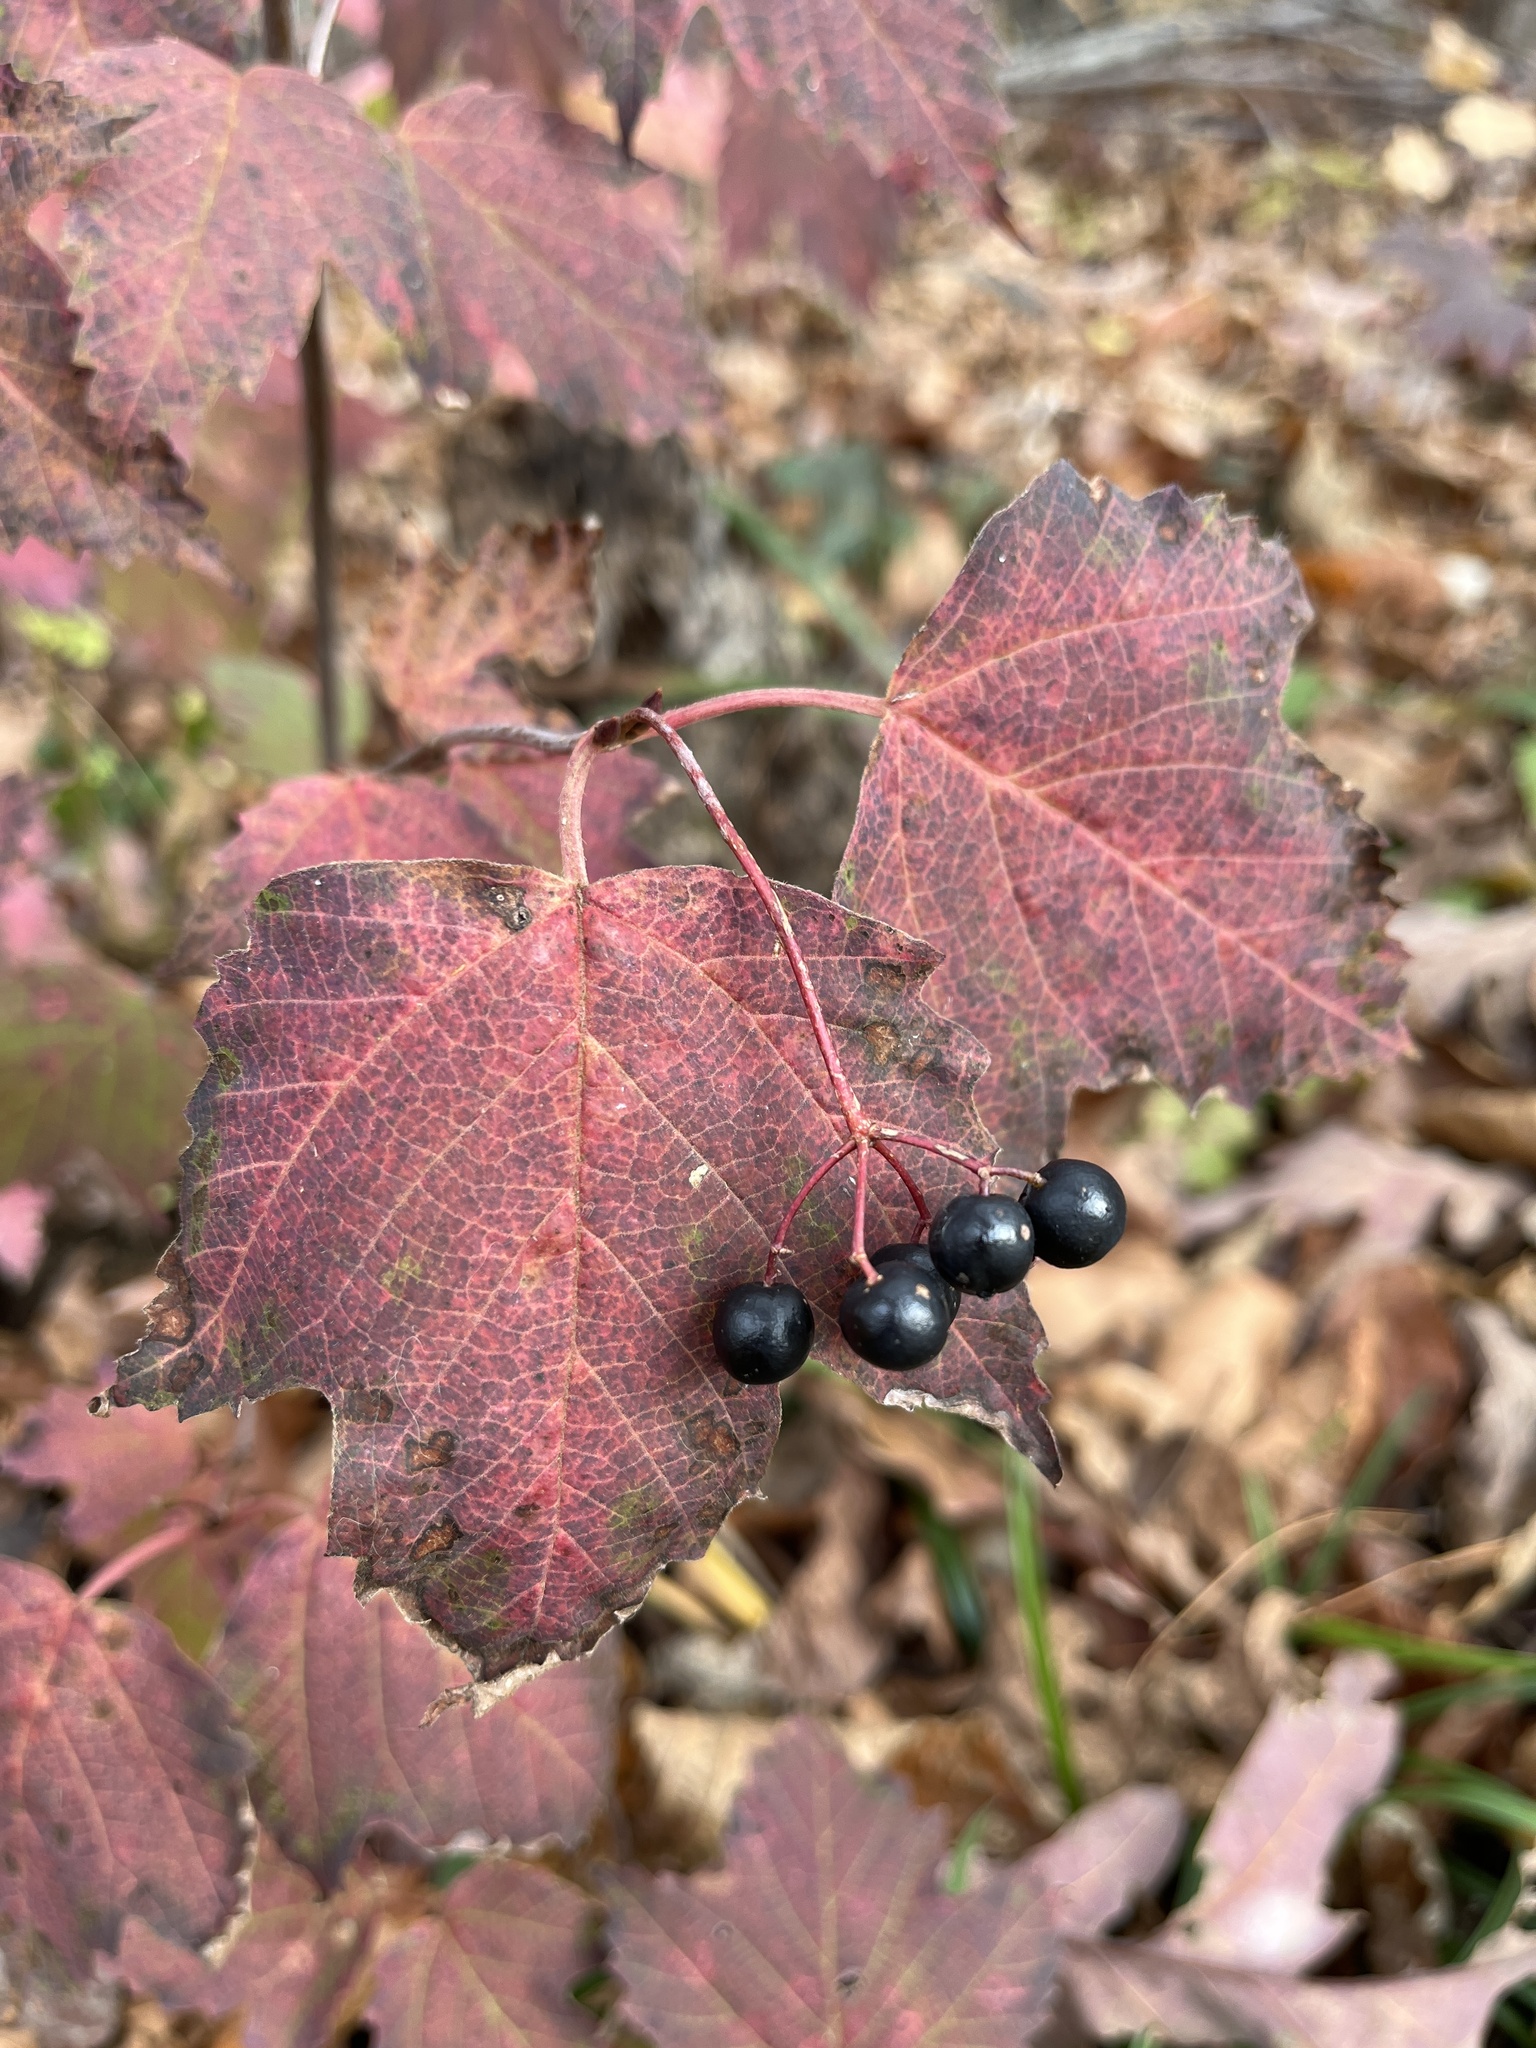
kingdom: Plantae
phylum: Tracheophyta
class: Magnoliopsida
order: Dipsacales
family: Viburnaceae
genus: Viburnum
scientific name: Viburnum acerifolium
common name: Dockmackie
